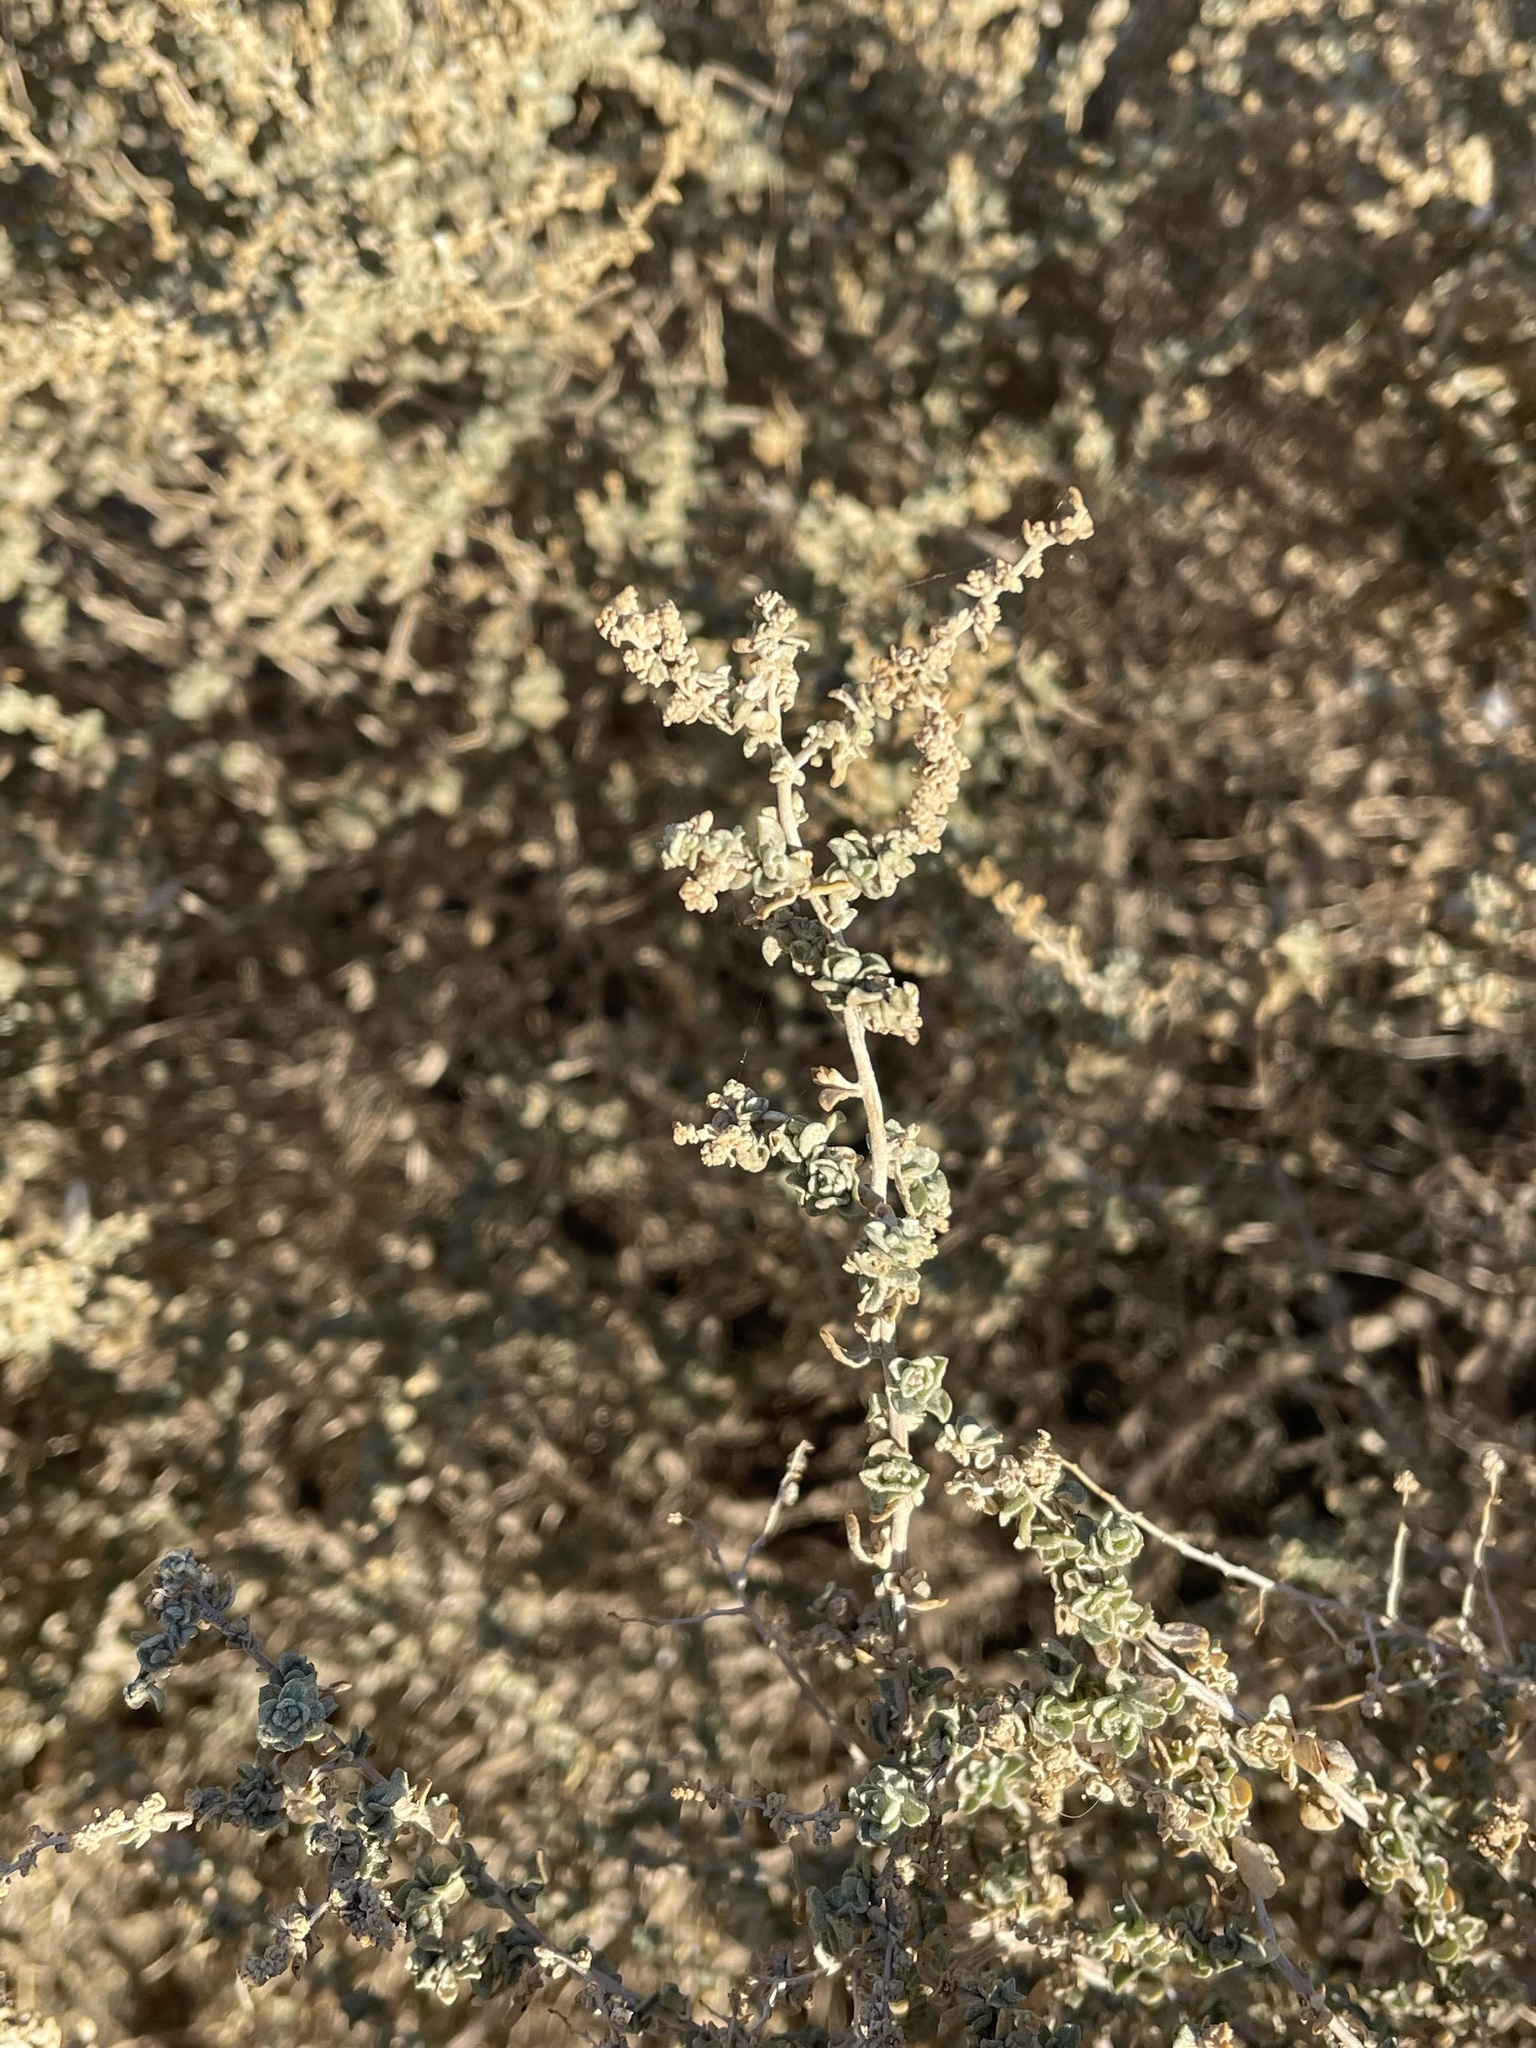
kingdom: Plantae
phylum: Tracheophyta
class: Magnoliopsida
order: Caryophyllales
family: Amaranthaceae
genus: Atriplex
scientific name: Atriplex polycarpa
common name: Desert saltbush
